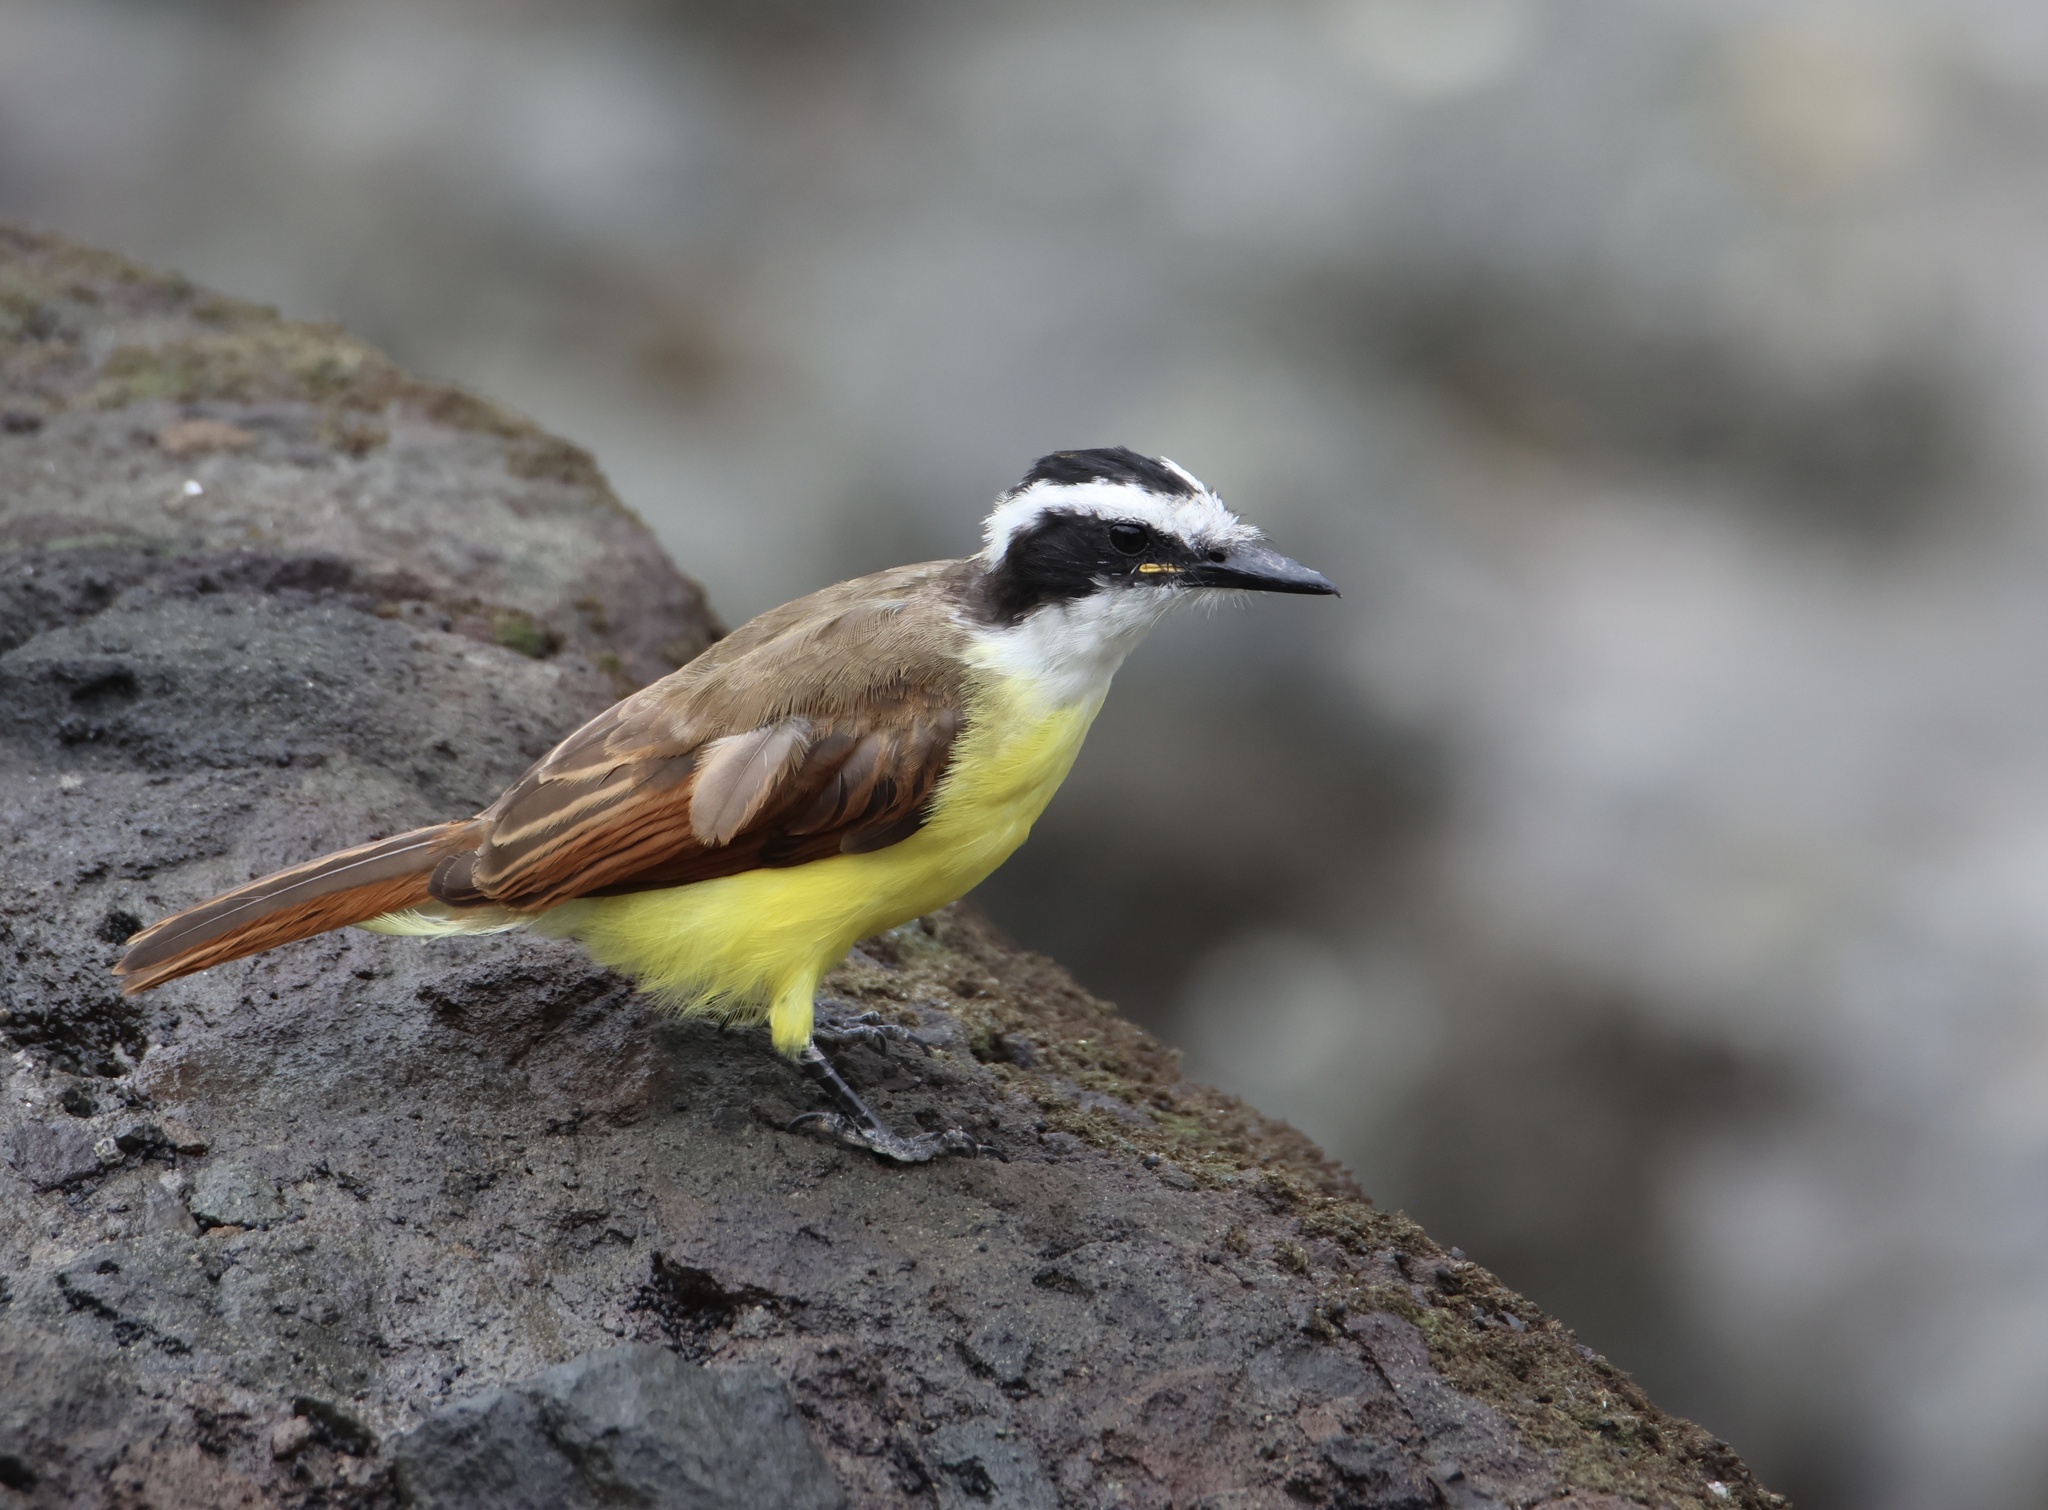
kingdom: Animalia
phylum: Chordata
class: Aves
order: Passeriformes
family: Tyrannidae
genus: Pitangus
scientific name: Pitangus sulphuratus
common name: Great kiskadee
